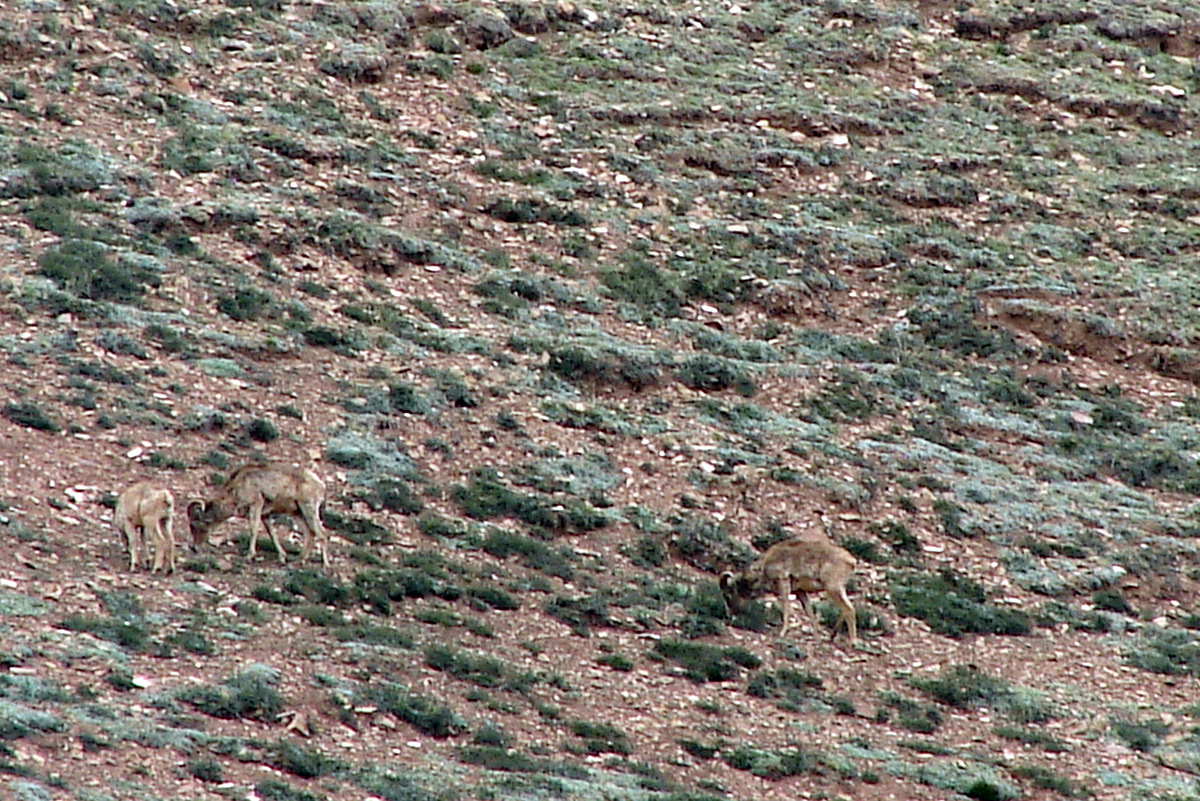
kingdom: Animalia
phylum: Chordata
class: Mammalia
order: Artiodactyla
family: Bovidae
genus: Ovis
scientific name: Ovis ammon
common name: Argali
